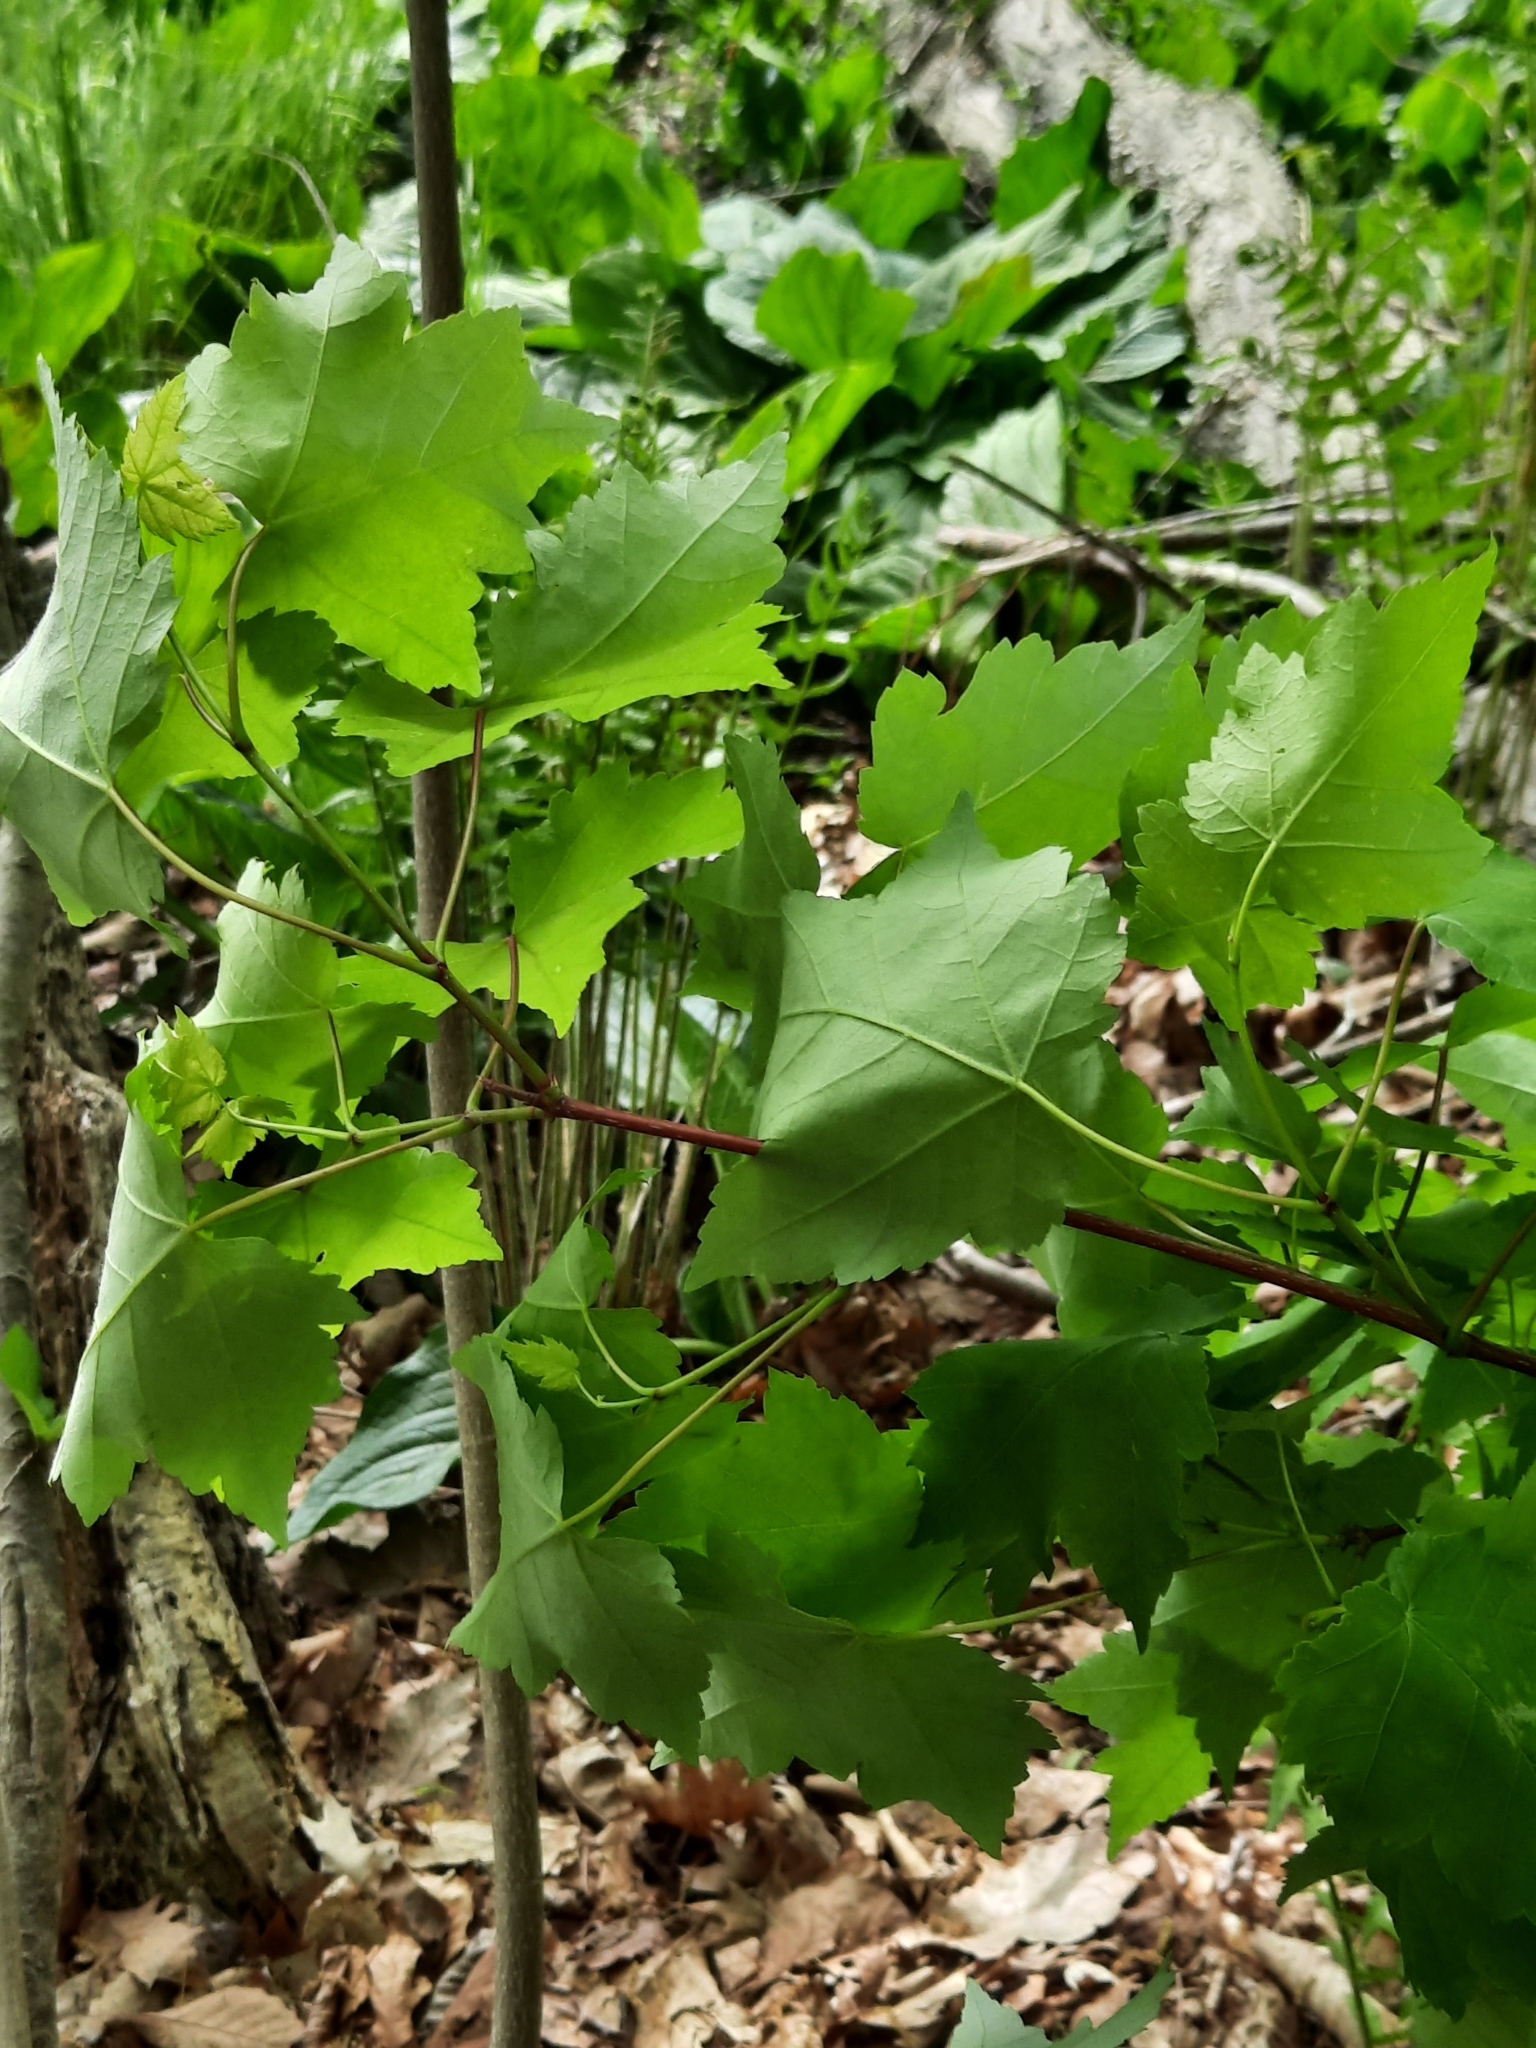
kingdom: Plantae
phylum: Tracheophyta
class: Magnoliopsida
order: Sapindales
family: Sapindaceae
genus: Acer
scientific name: Acer rubrum
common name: Red maple
